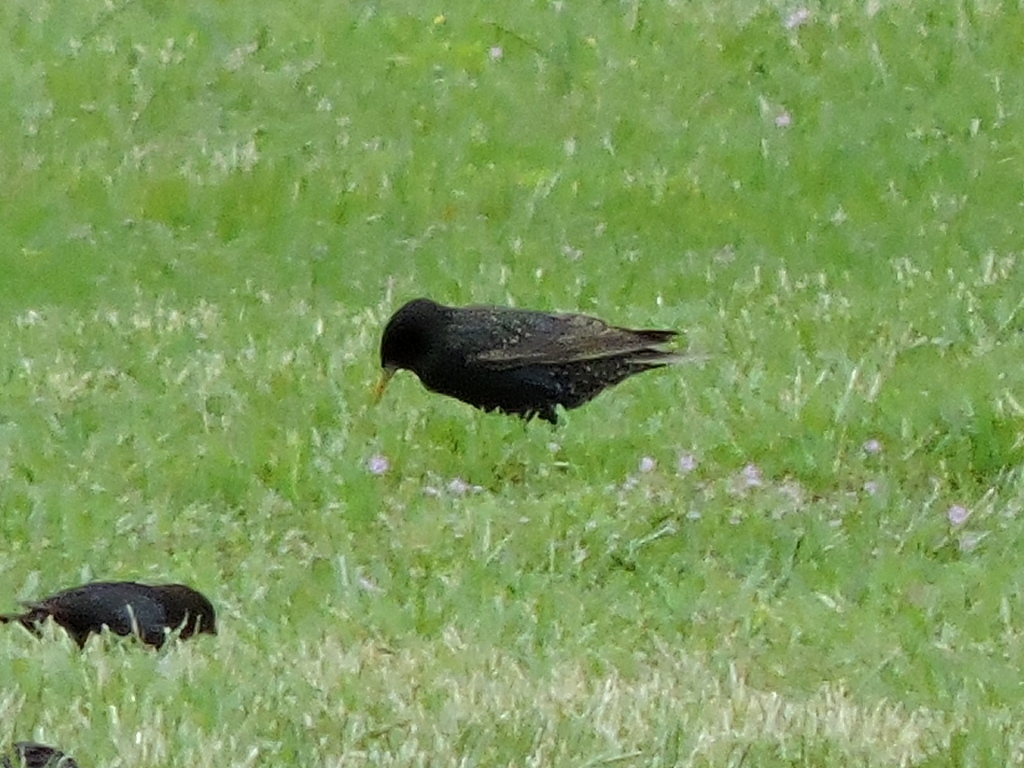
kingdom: Animalia
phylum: Chordata
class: Aves
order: Passeriformes
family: Sturnidae
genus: Sturnus
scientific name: Sturnus vulgaris
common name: Common starling
